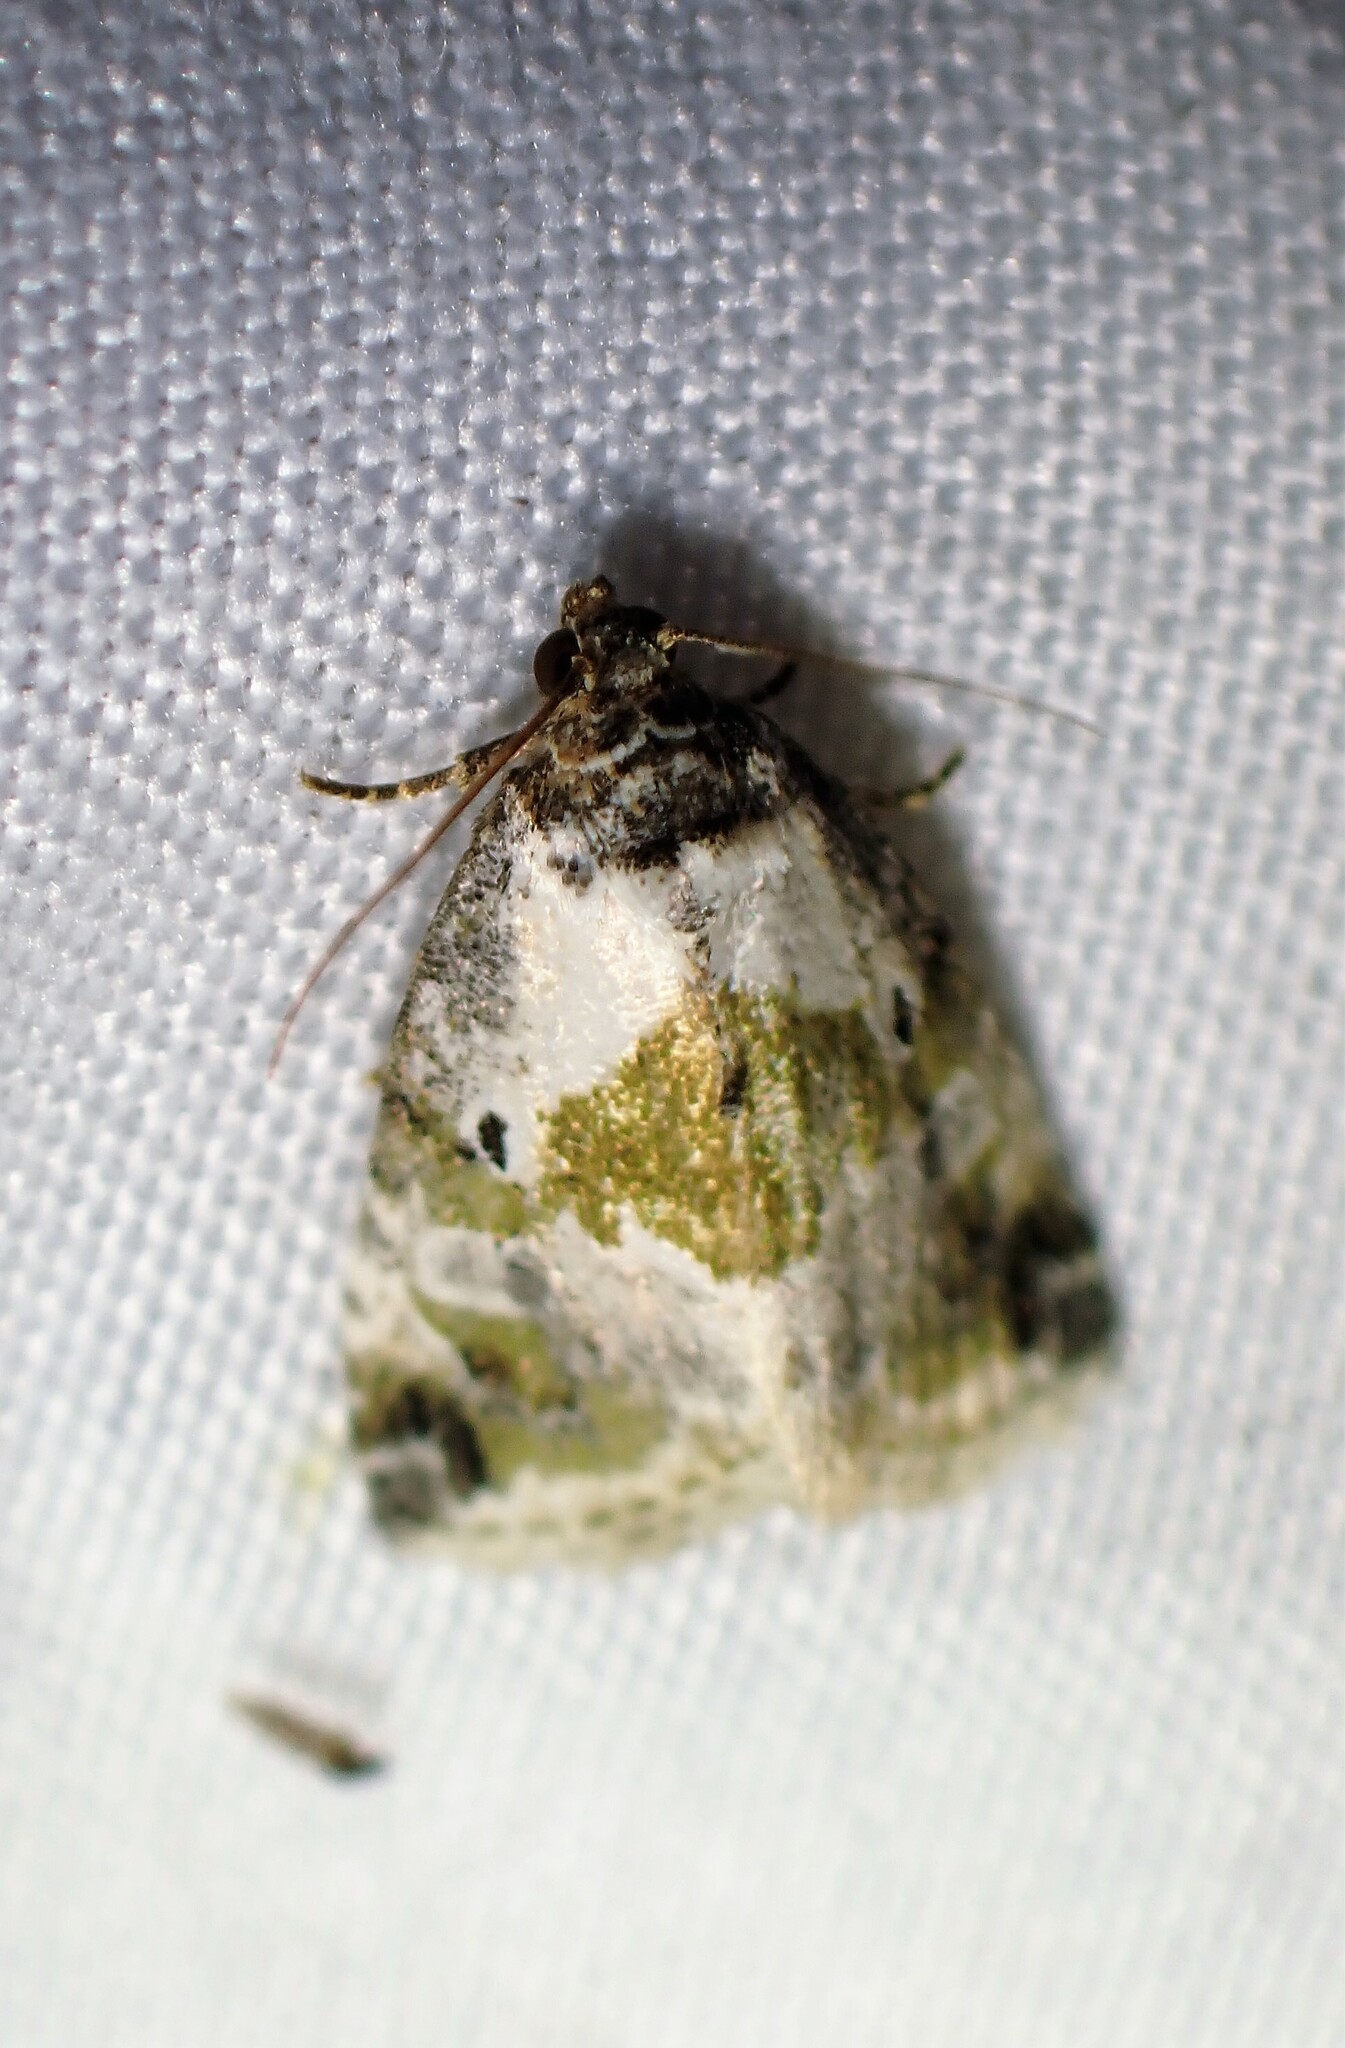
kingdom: Animalia
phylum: Arthropoda
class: Insecta
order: Lepidoptera
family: Noctuidae
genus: Maliattha
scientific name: Maliattha synochitis
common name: Black-dotted glyph
